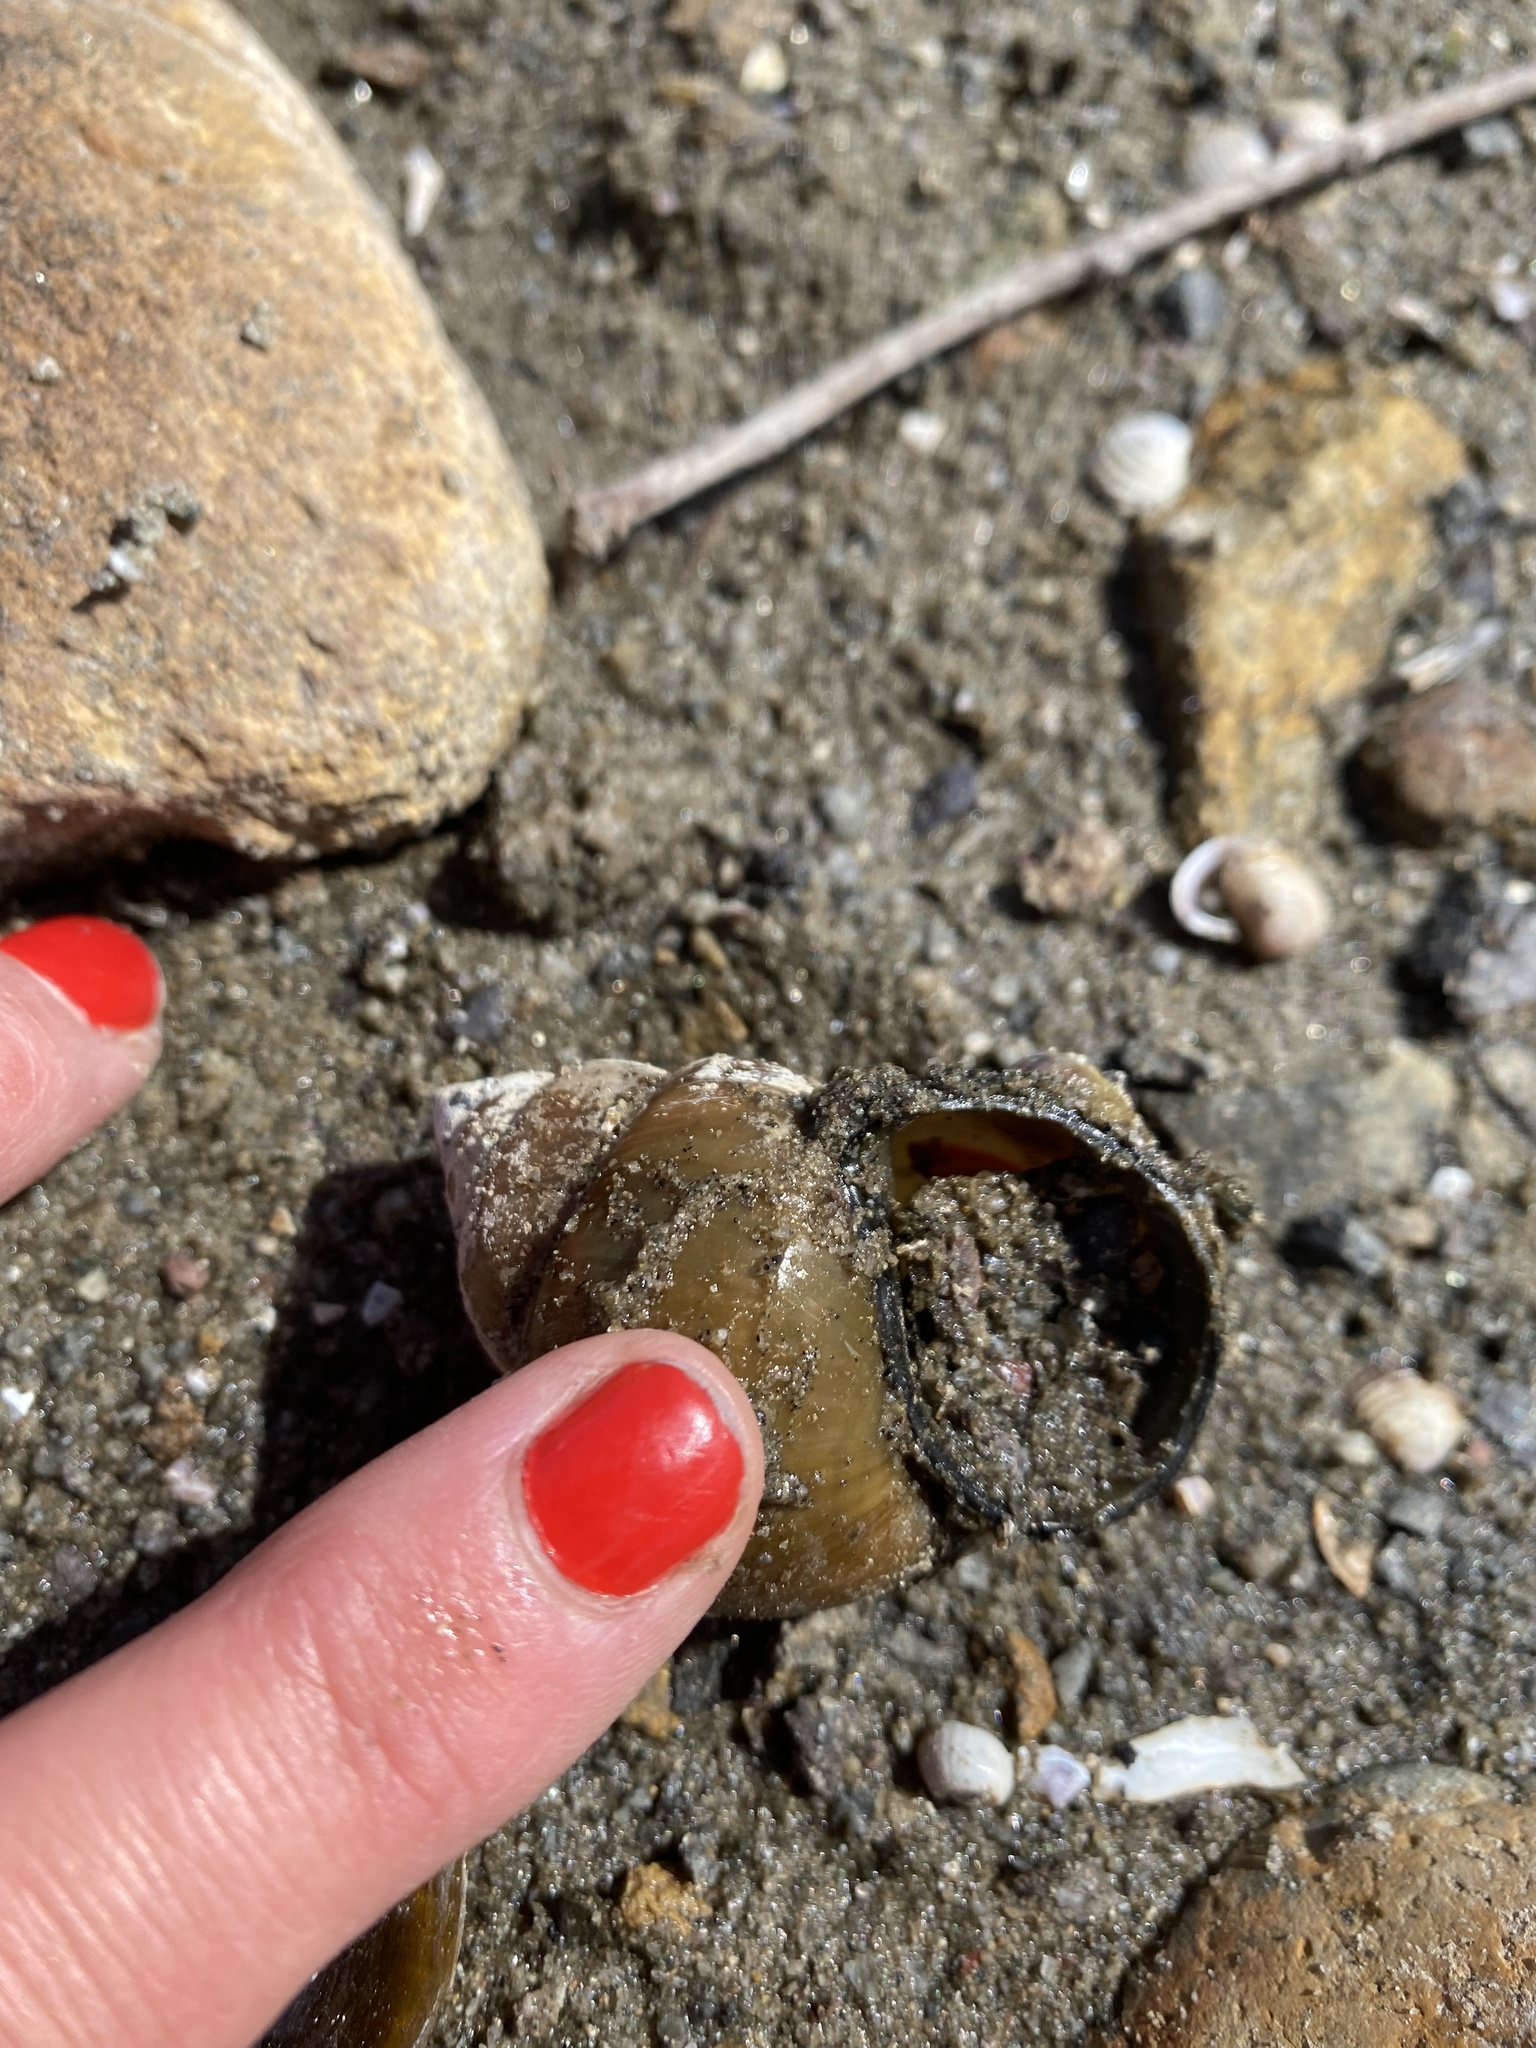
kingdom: Animalia
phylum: Mollusca
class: Gastropoda
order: Architaenioglossa
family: Viviparidae
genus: Cipangopaludina
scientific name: Cipangopaludina chinensis
